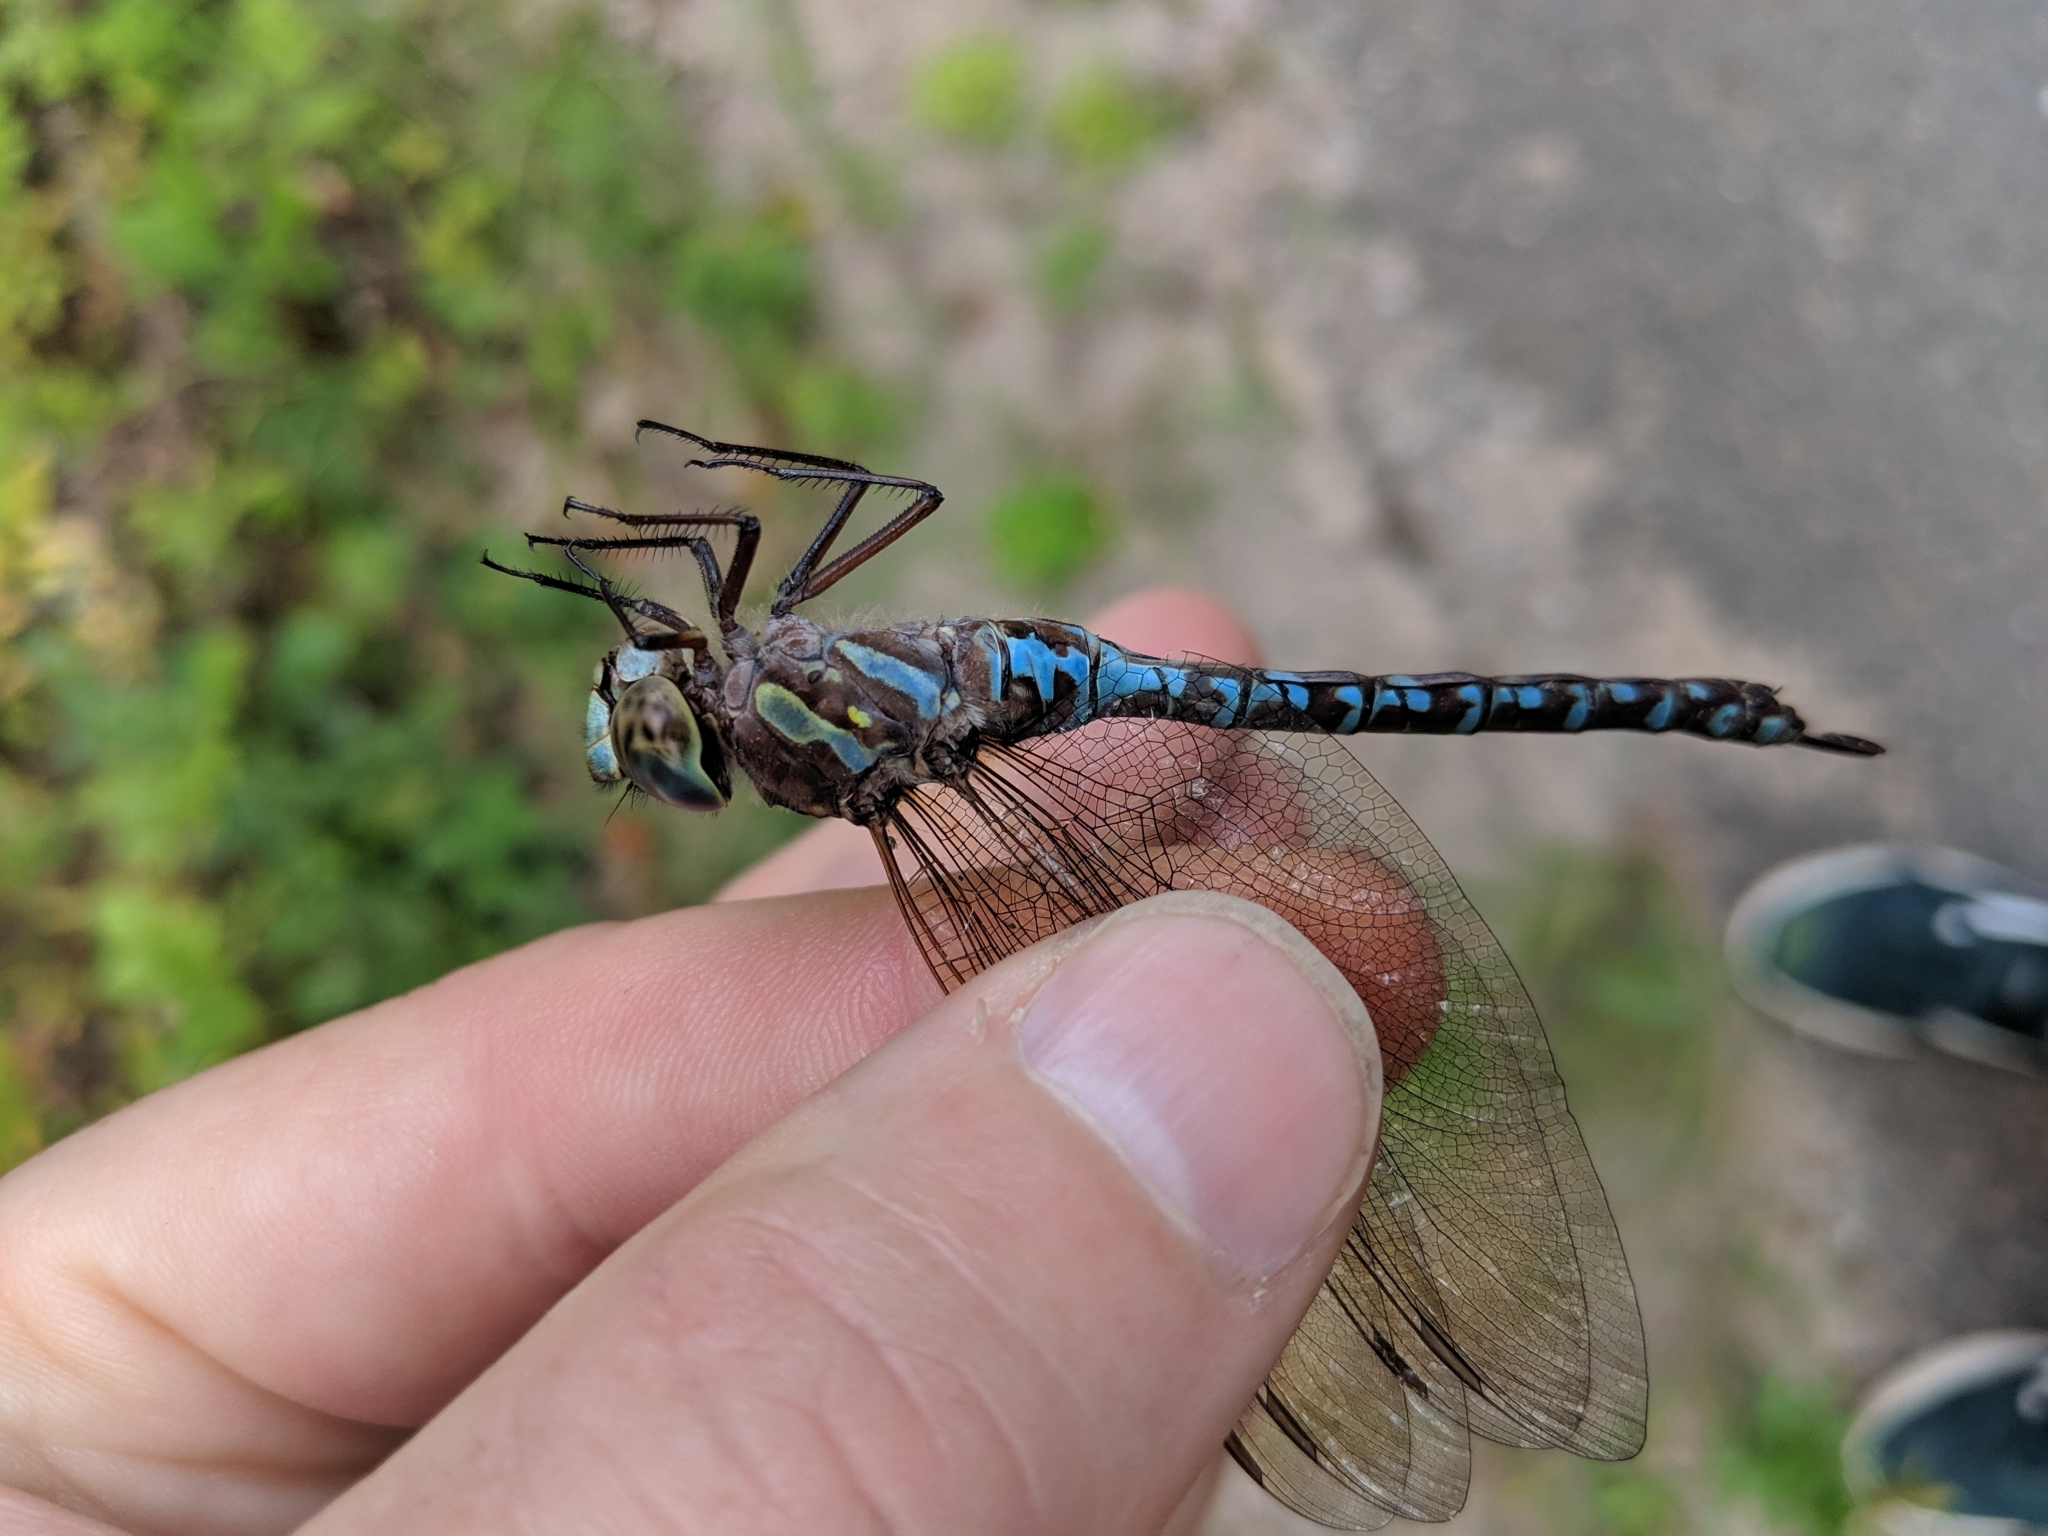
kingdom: Animalia
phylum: Arthropoda
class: Insecta
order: Odonata
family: Aeshnidae
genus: Aeshna
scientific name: Aeshna canadensis
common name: Canada darner
